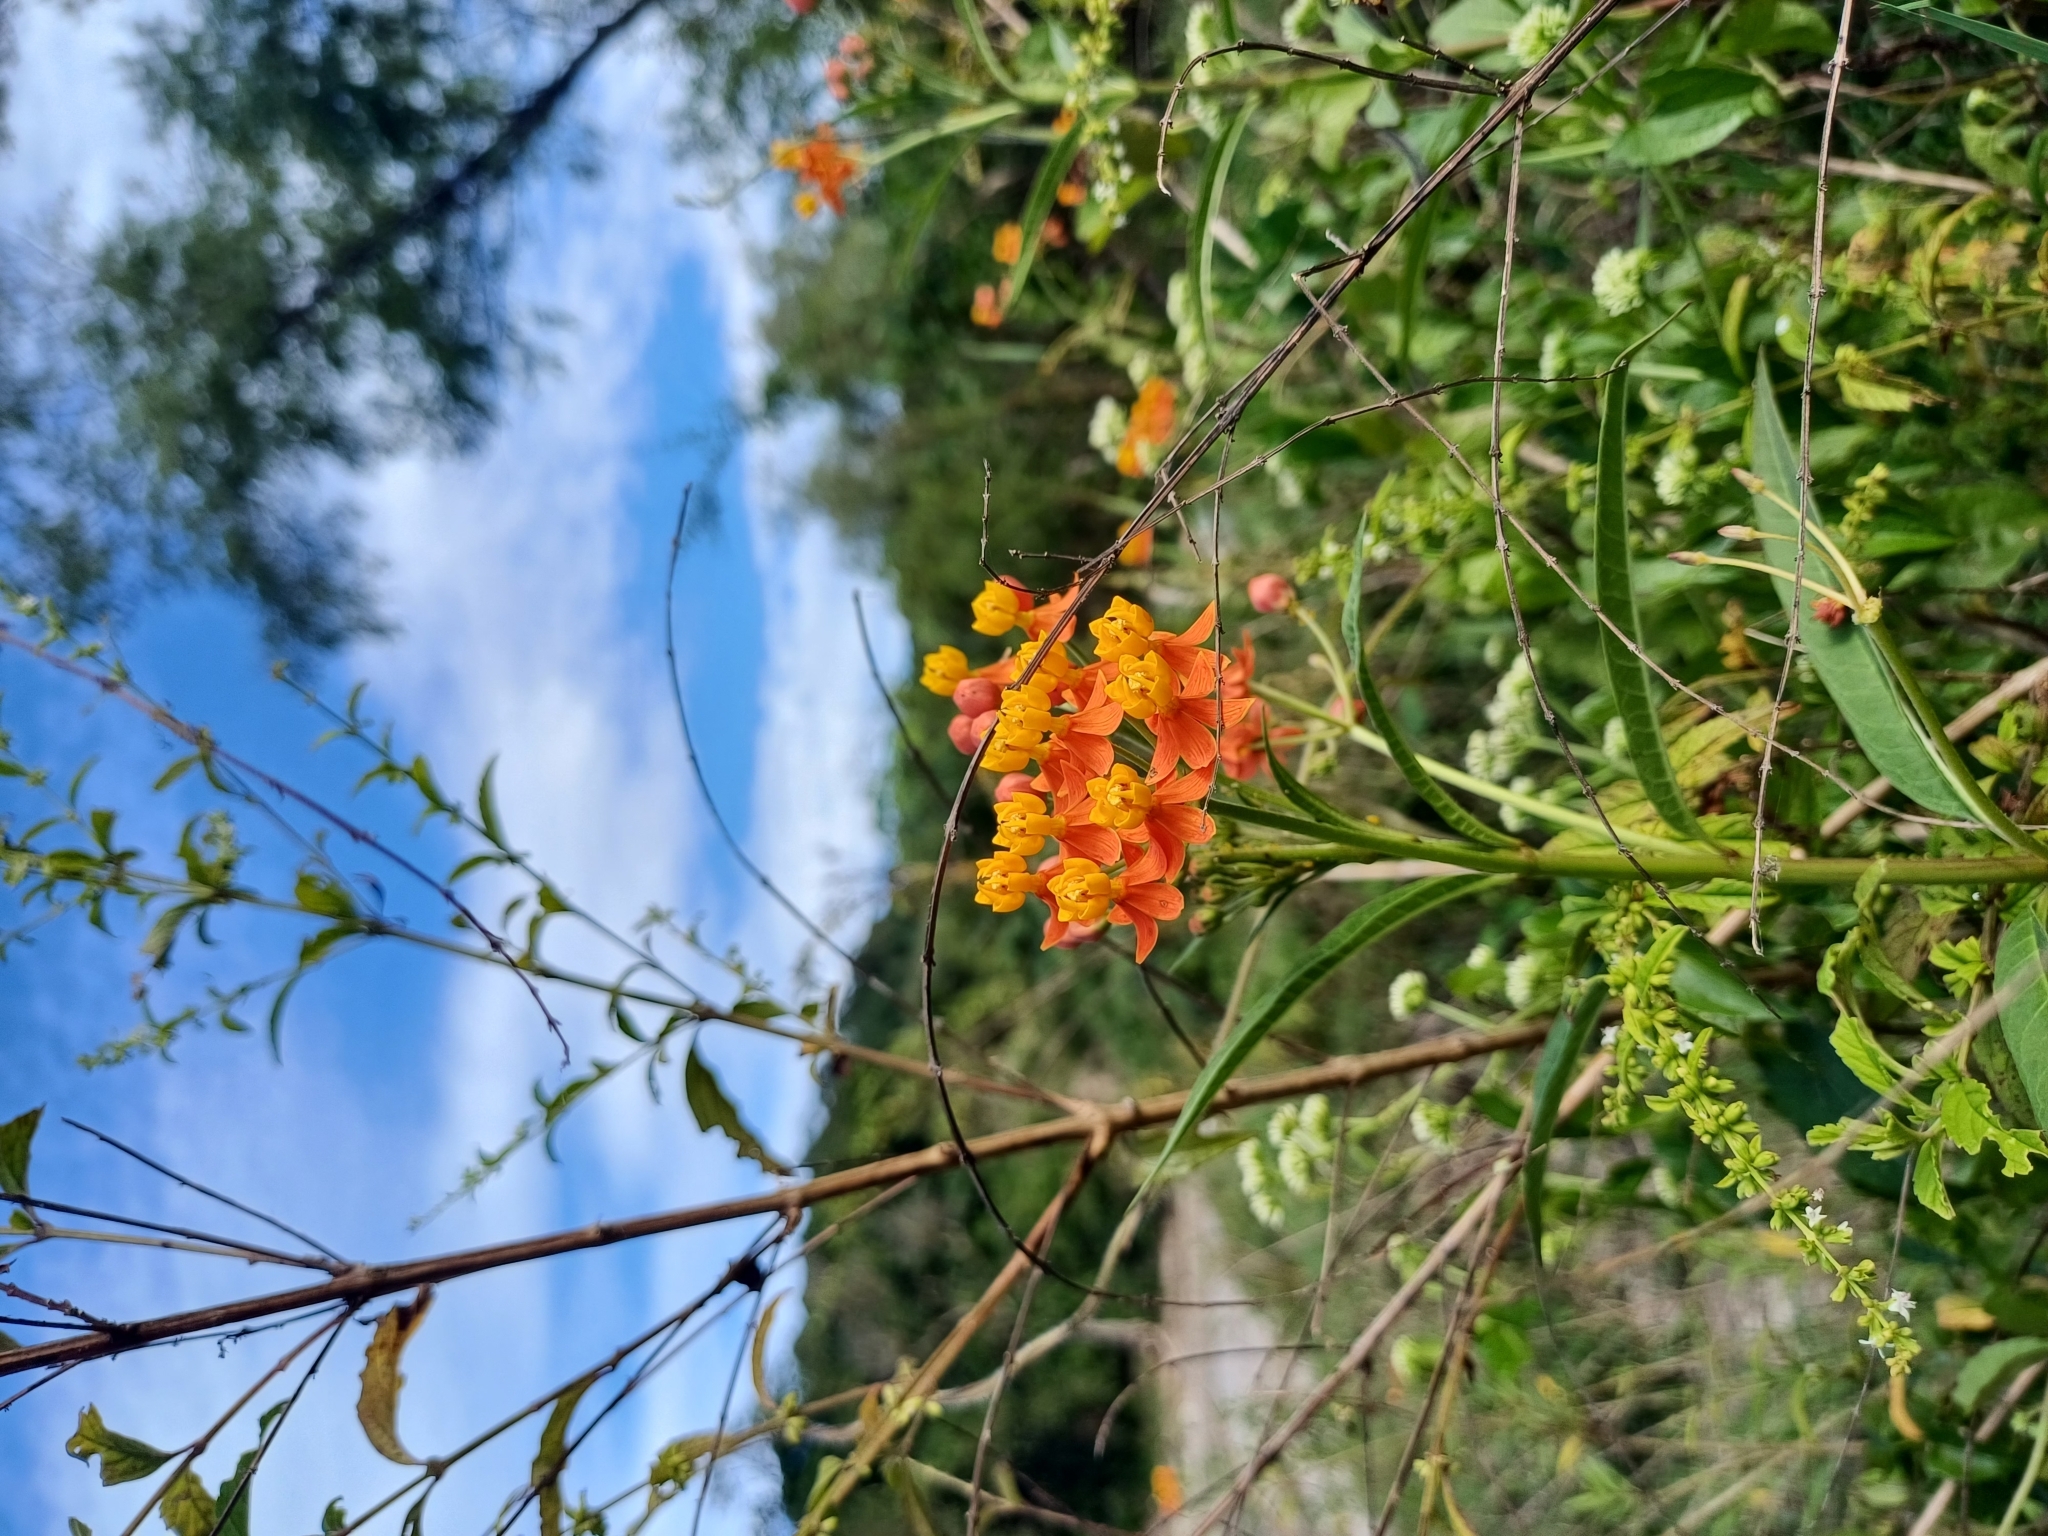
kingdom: Plantae
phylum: Tracheophyta
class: Magnoliopsida
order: Gentianales
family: Apocynaceae
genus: Asclepias
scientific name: Asclepias curassavica
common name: Bloodflower
